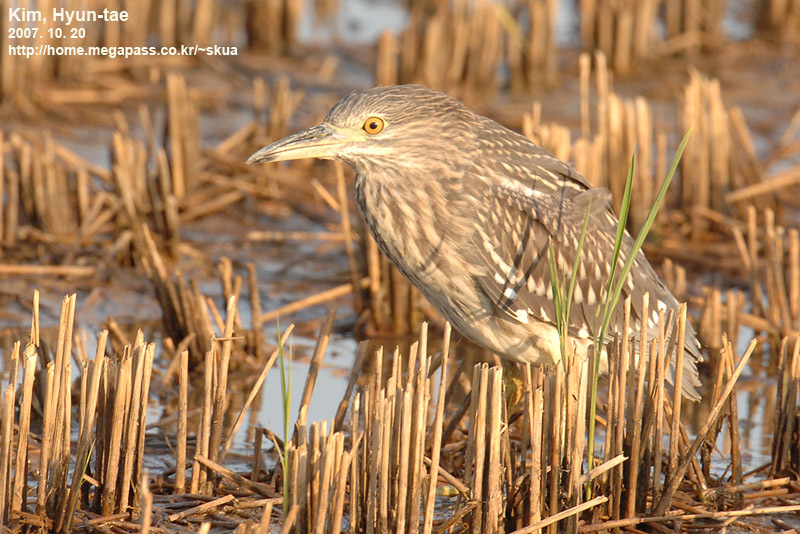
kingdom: Animalia
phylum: Chordata
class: Aves
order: Pelecaniformes
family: Ardeidae
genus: Nycticorax
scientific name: Nycticorax nycticorax
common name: Black-crowned night heron
